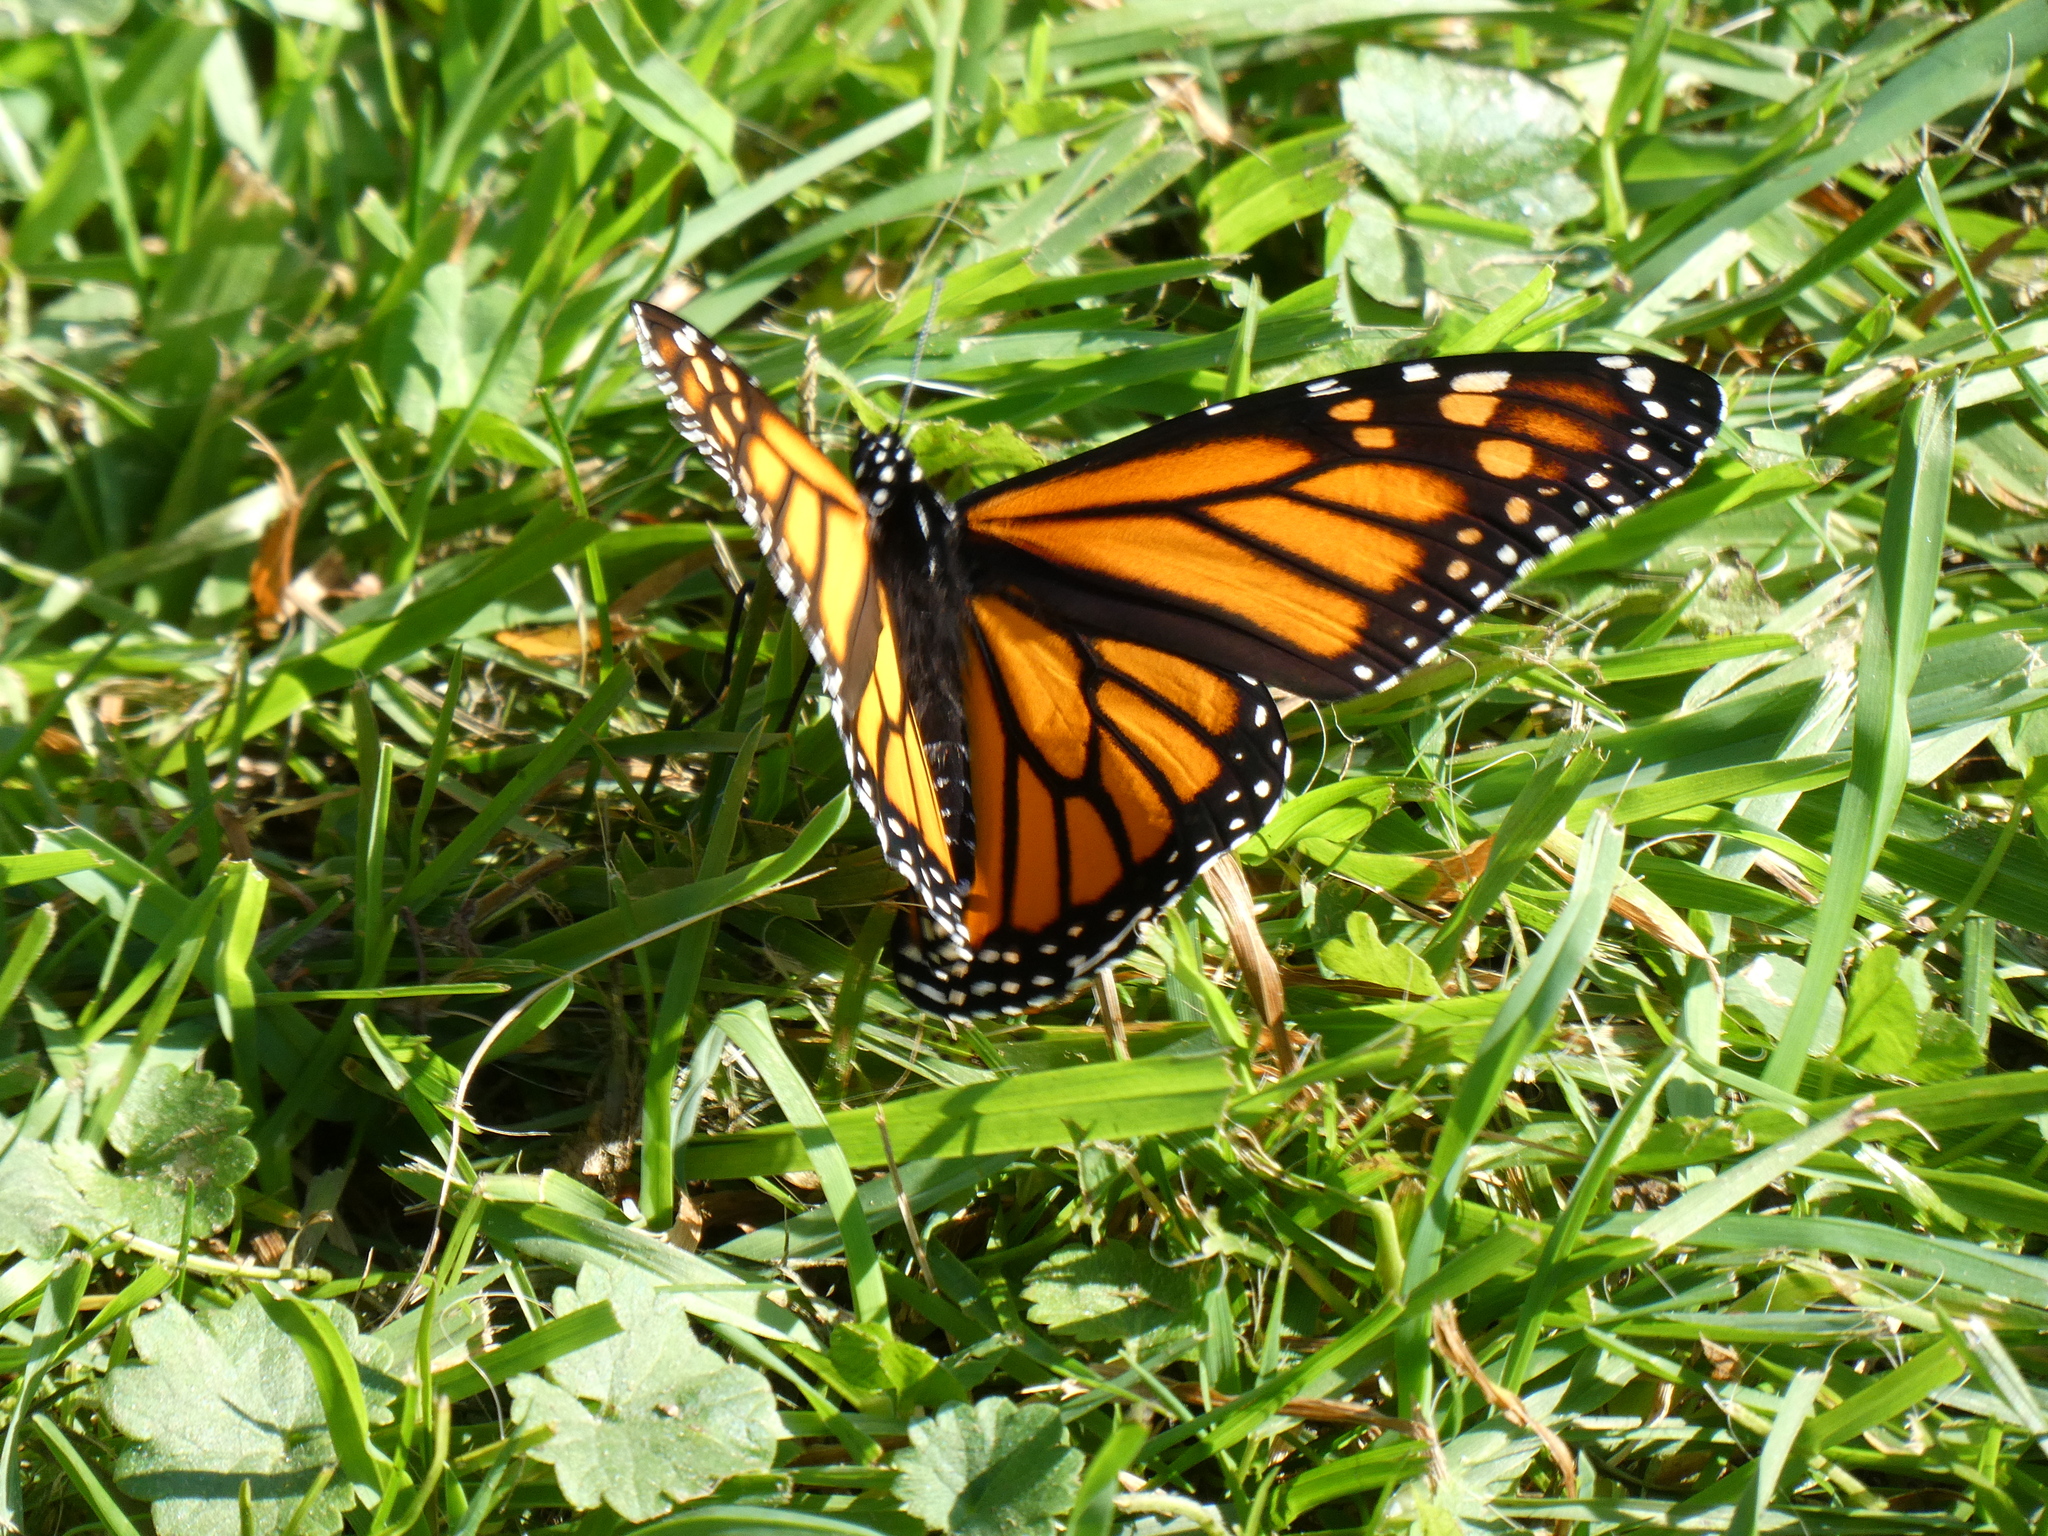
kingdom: Animalia
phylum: Arthropoda
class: Insecta
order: Lepidoptera
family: Nymphalidae
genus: Danaus
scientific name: Danaus plexippus
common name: Monarch
